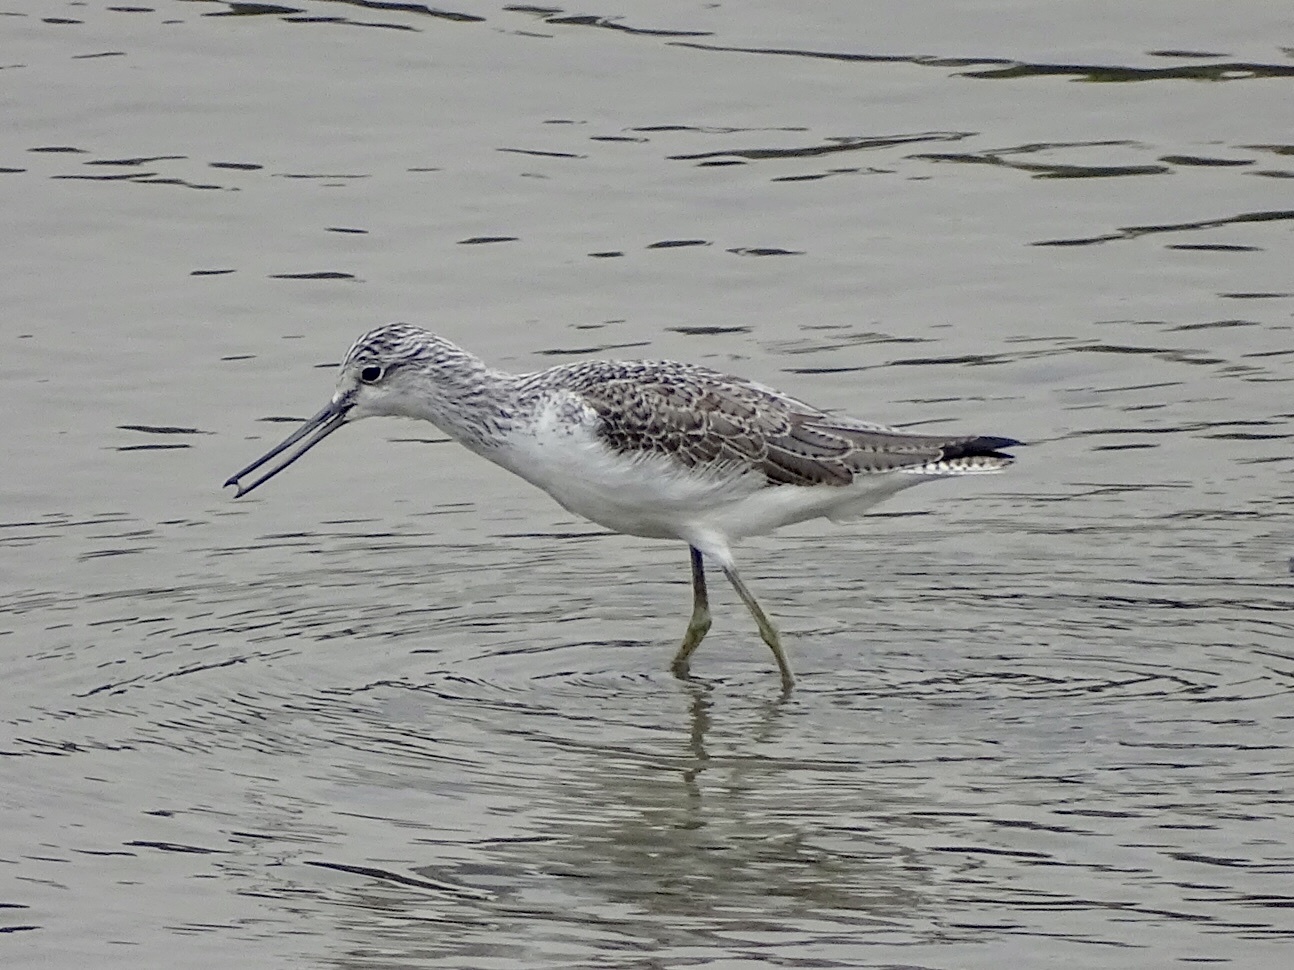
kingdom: Animalia
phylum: Chordata
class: Aves
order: Charadriiformes
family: Scolopacidae
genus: Tringa
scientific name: Tringa nebularia
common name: Common greenshank
